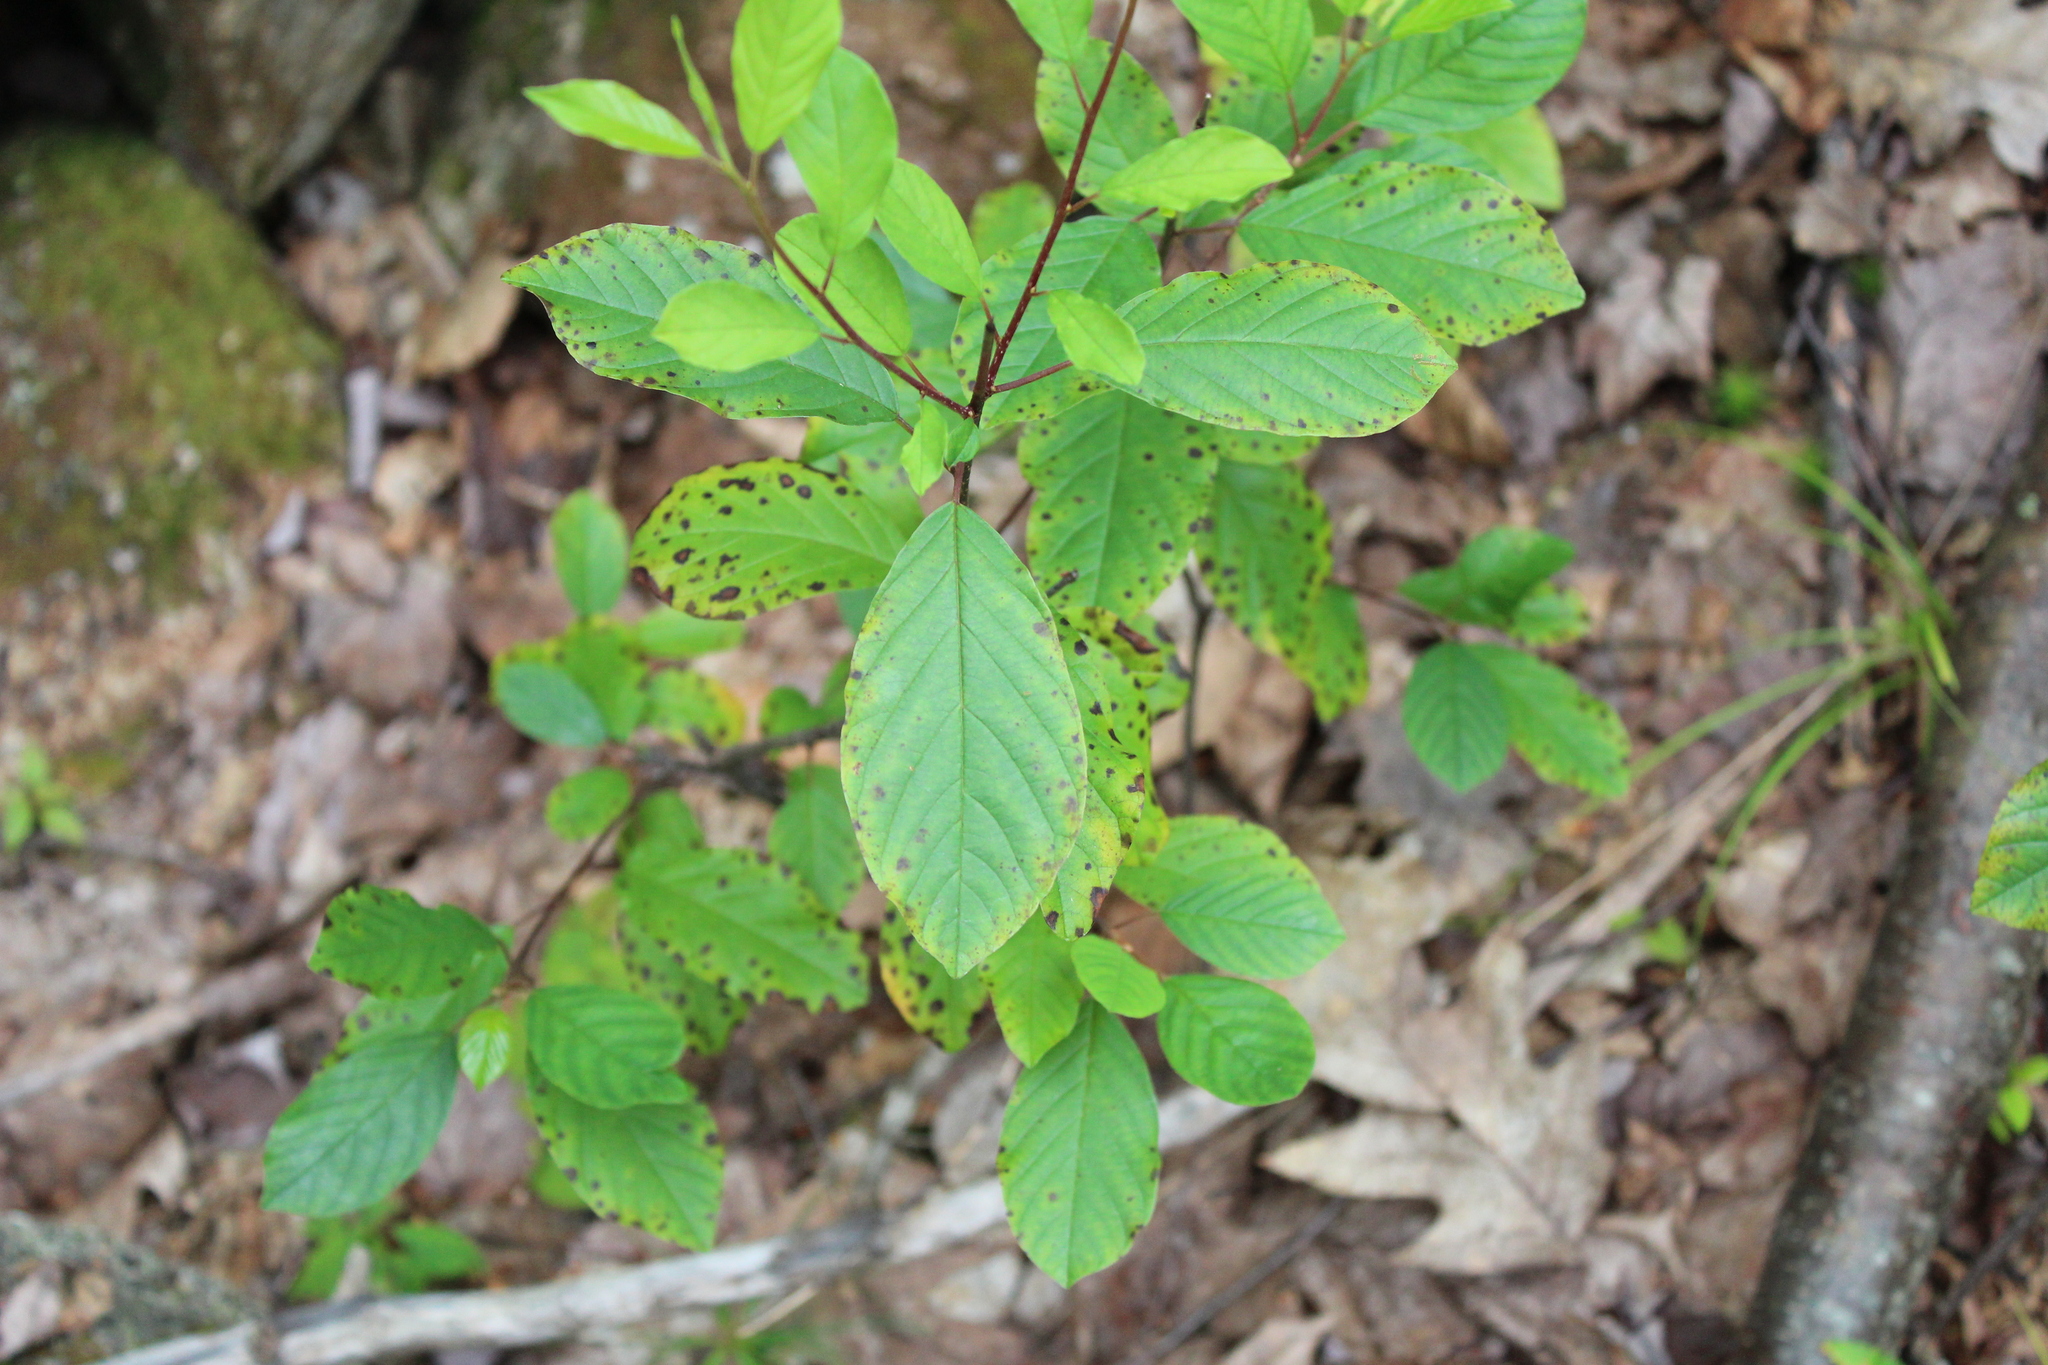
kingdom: Plantae
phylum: Tracheophyta
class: Magnoliopsida
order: Rosales
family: Rhamnaceae
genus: Frangula
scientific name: Frangula alnus
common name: Alder buckthorn
